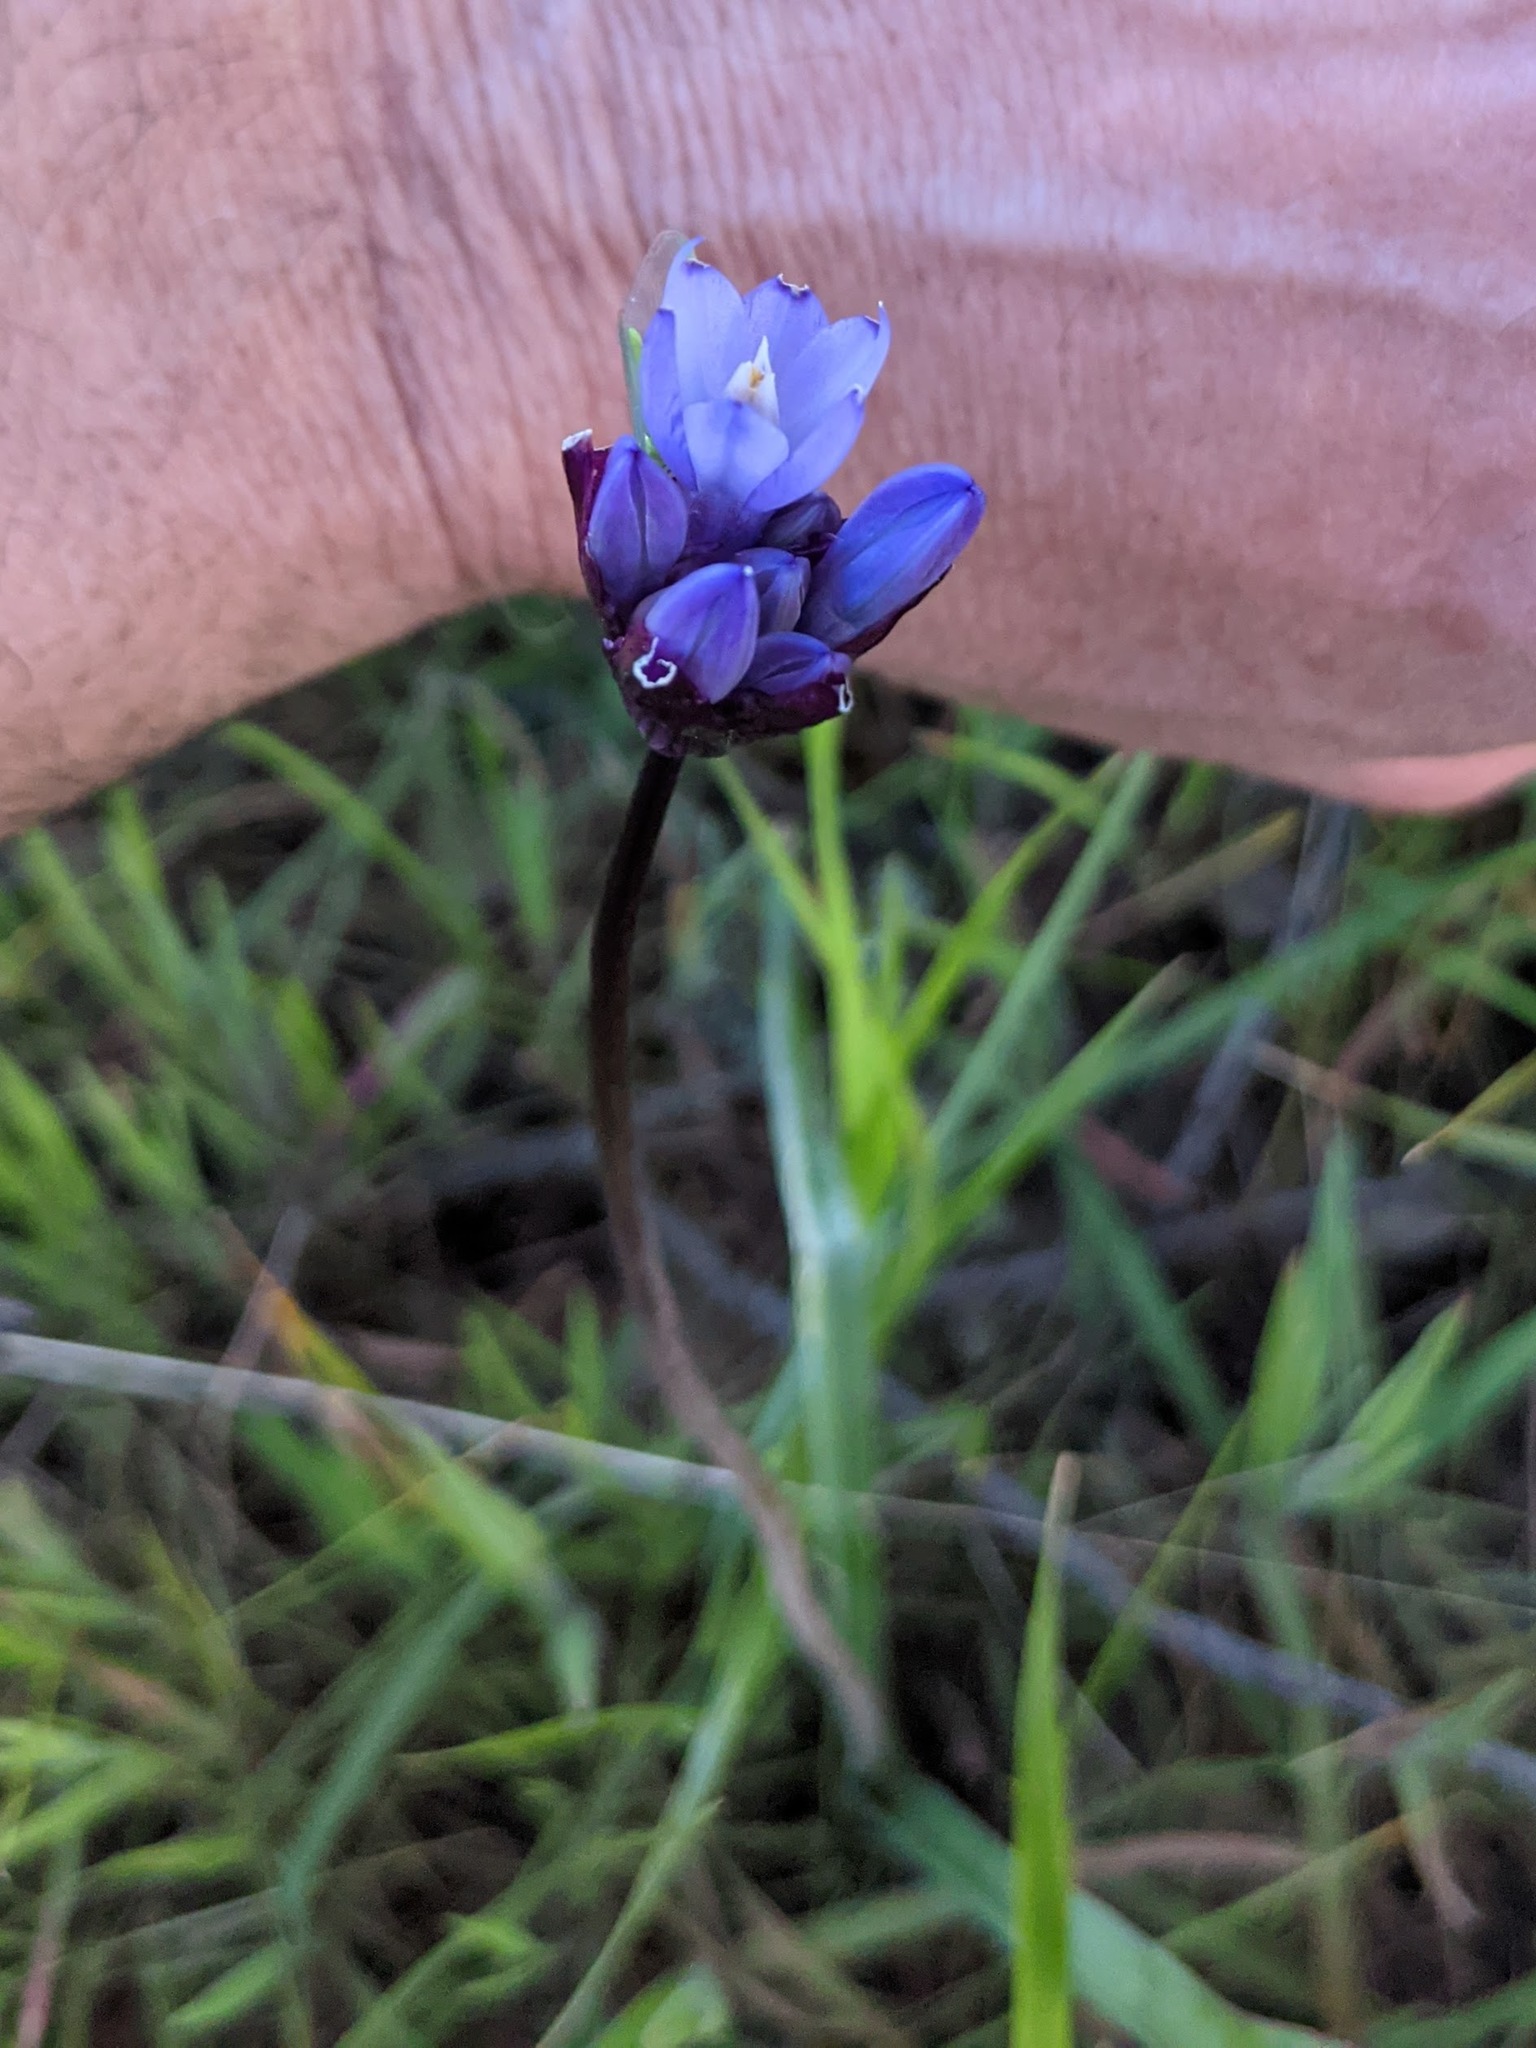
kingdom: Plantae
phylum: Tracheophyta
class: Liliopsida
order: Asparagales
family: Asparagaceae
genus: Dipterostemon
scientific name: Dipterostemon capitatus
